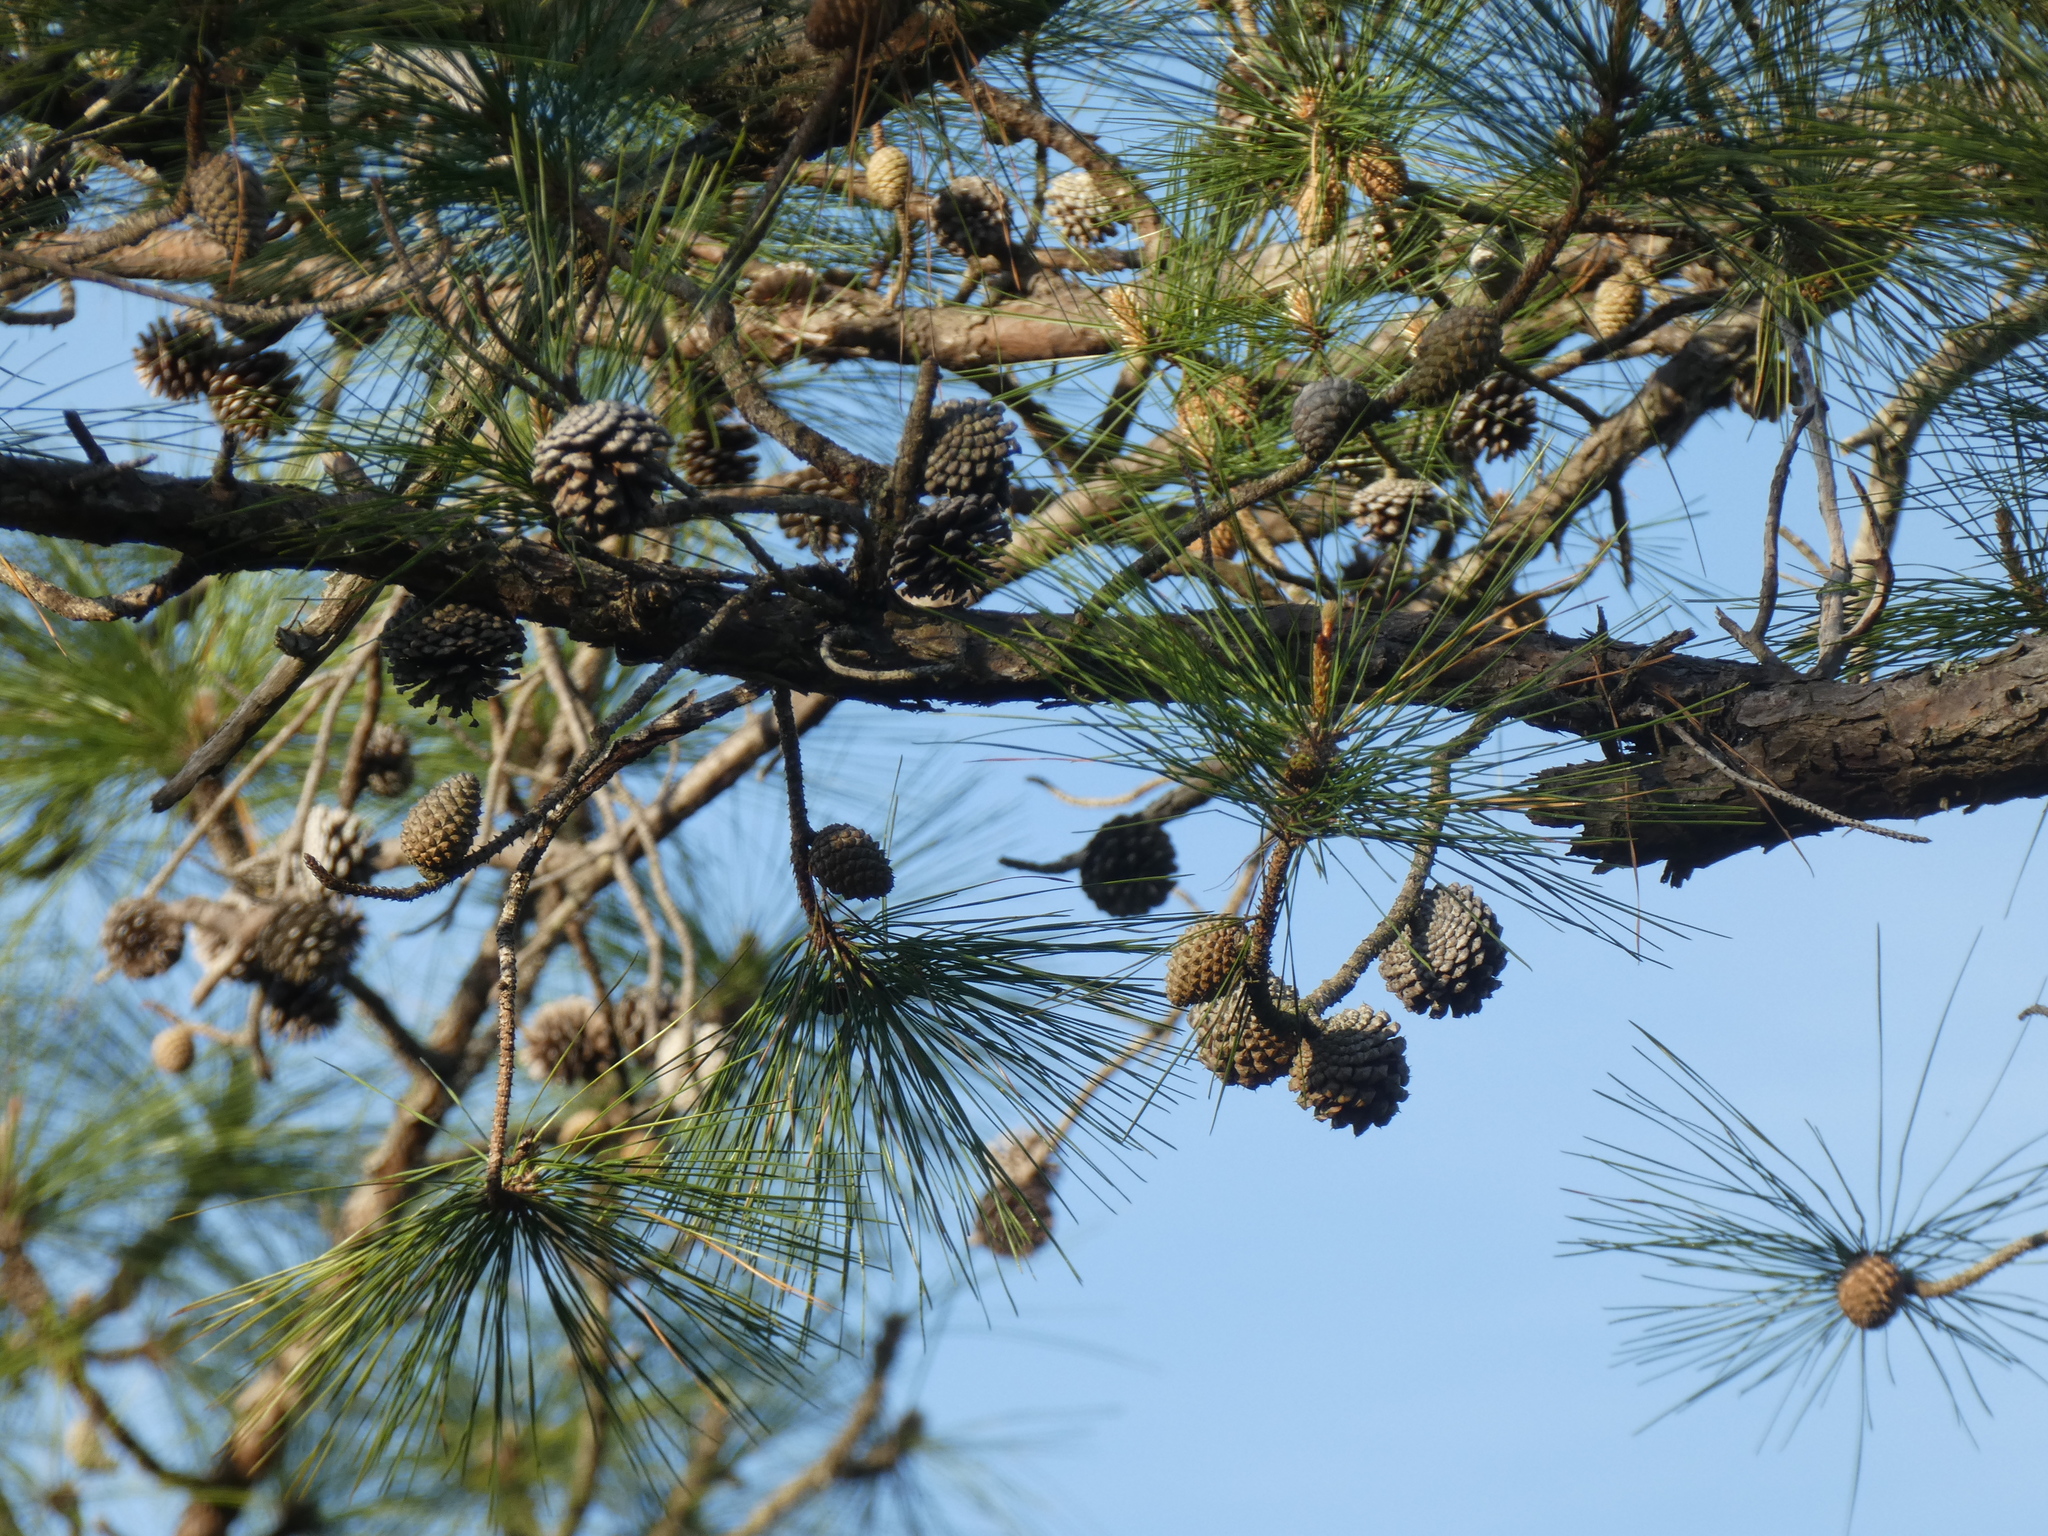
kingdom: Plantae
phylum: Tracheophyta
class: Pinopsida
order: Pinales
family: Pinaceae
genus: Pinus
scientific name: Pinus serotina
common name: Marsh pine
